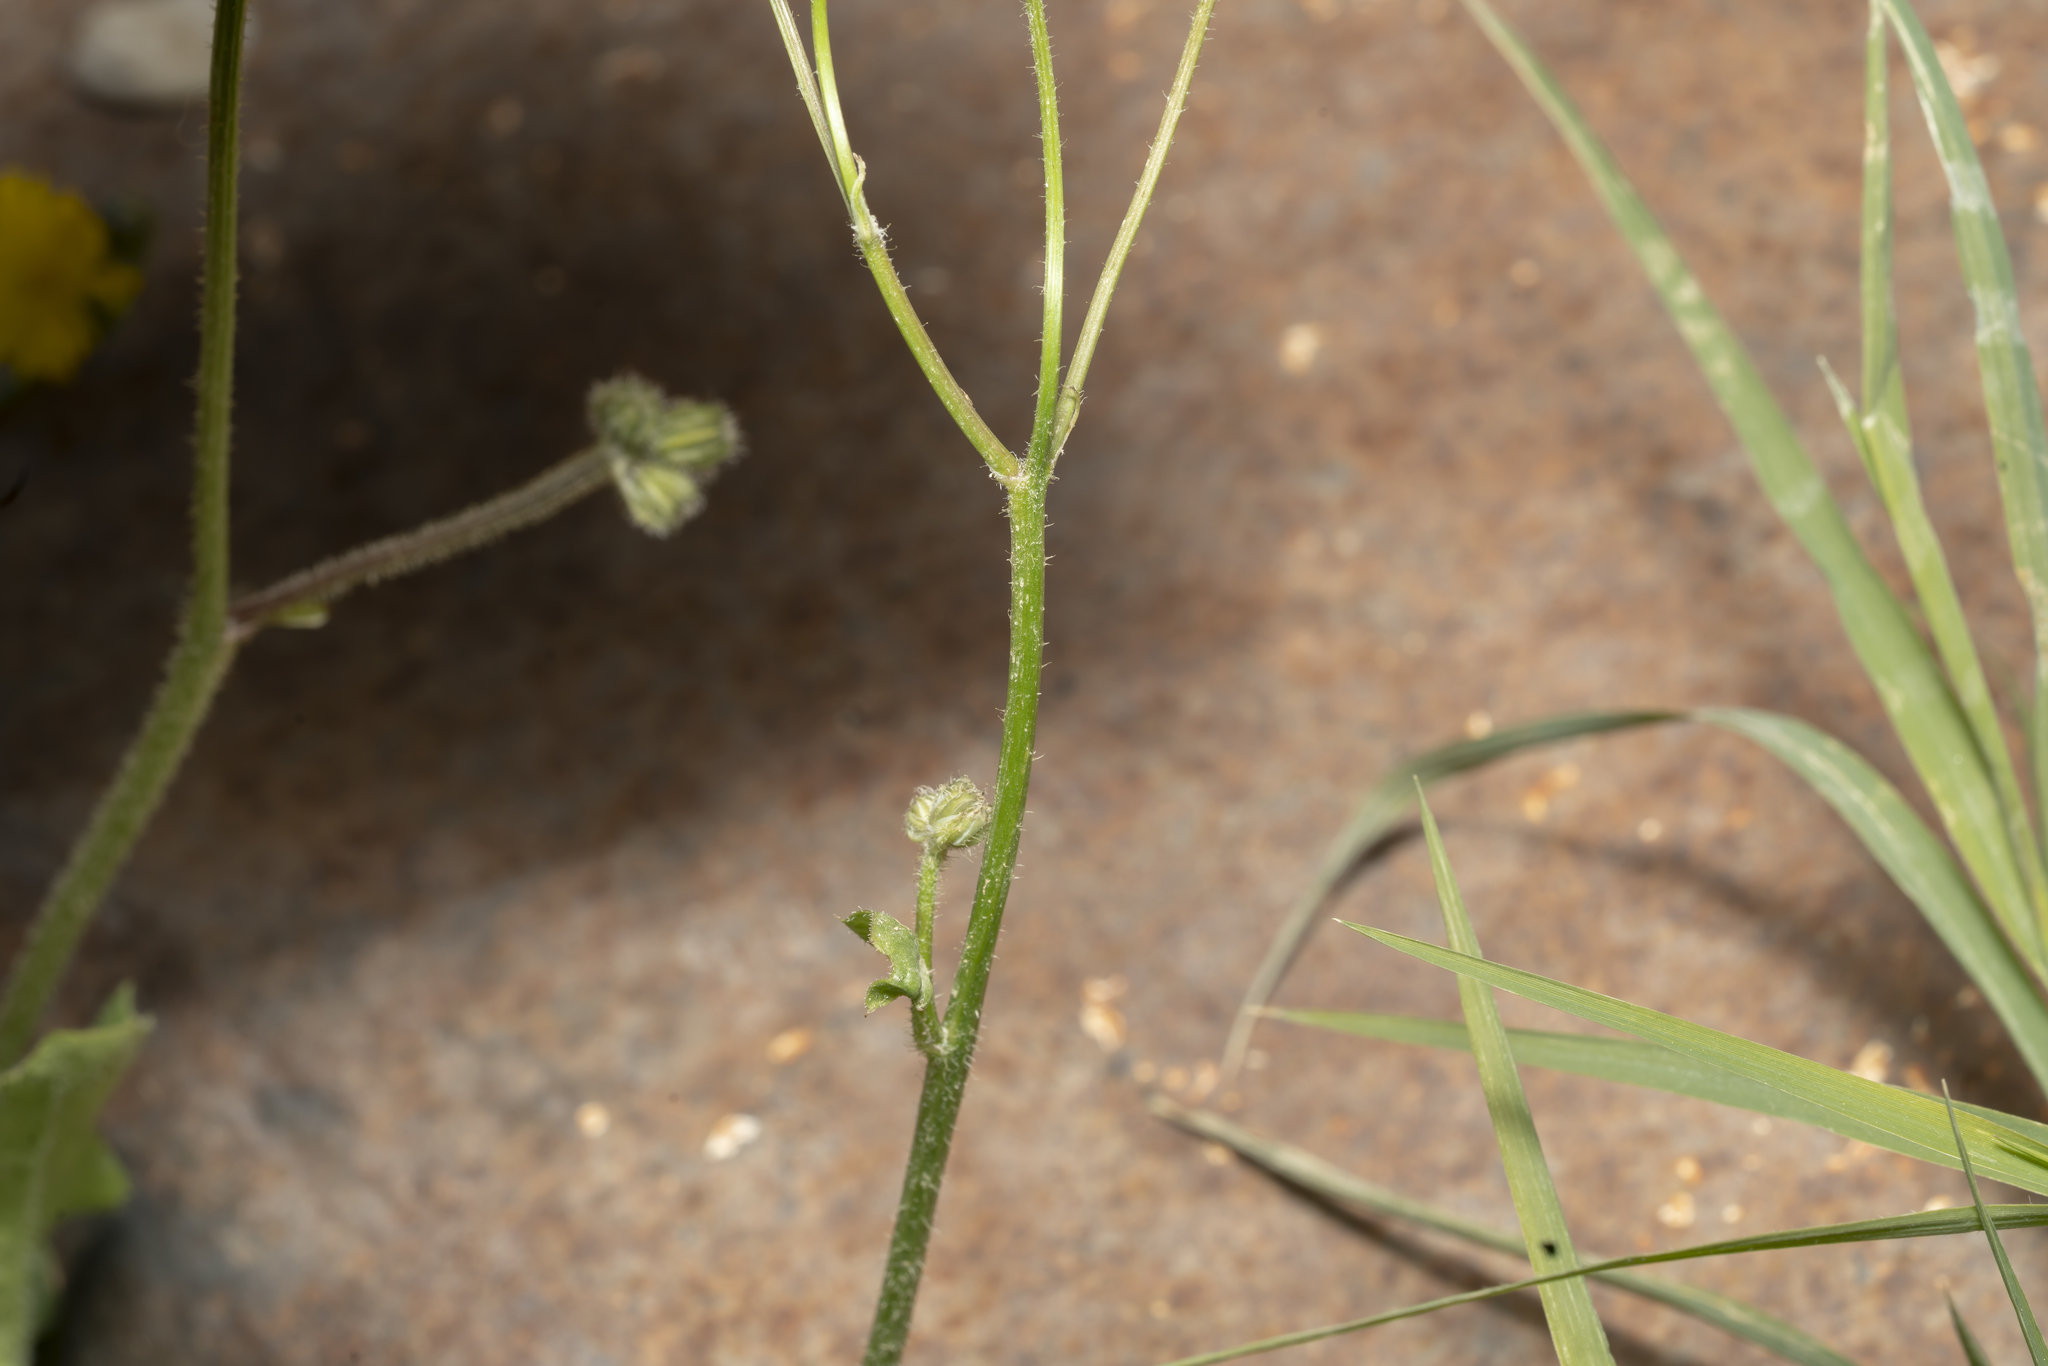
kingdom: Plantae
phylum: Tracheophyta
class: Magnoliopsida
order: Asterales
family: Asteraceae
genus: Crepis
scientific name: Crepis sancta
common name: Hawk's-beard
